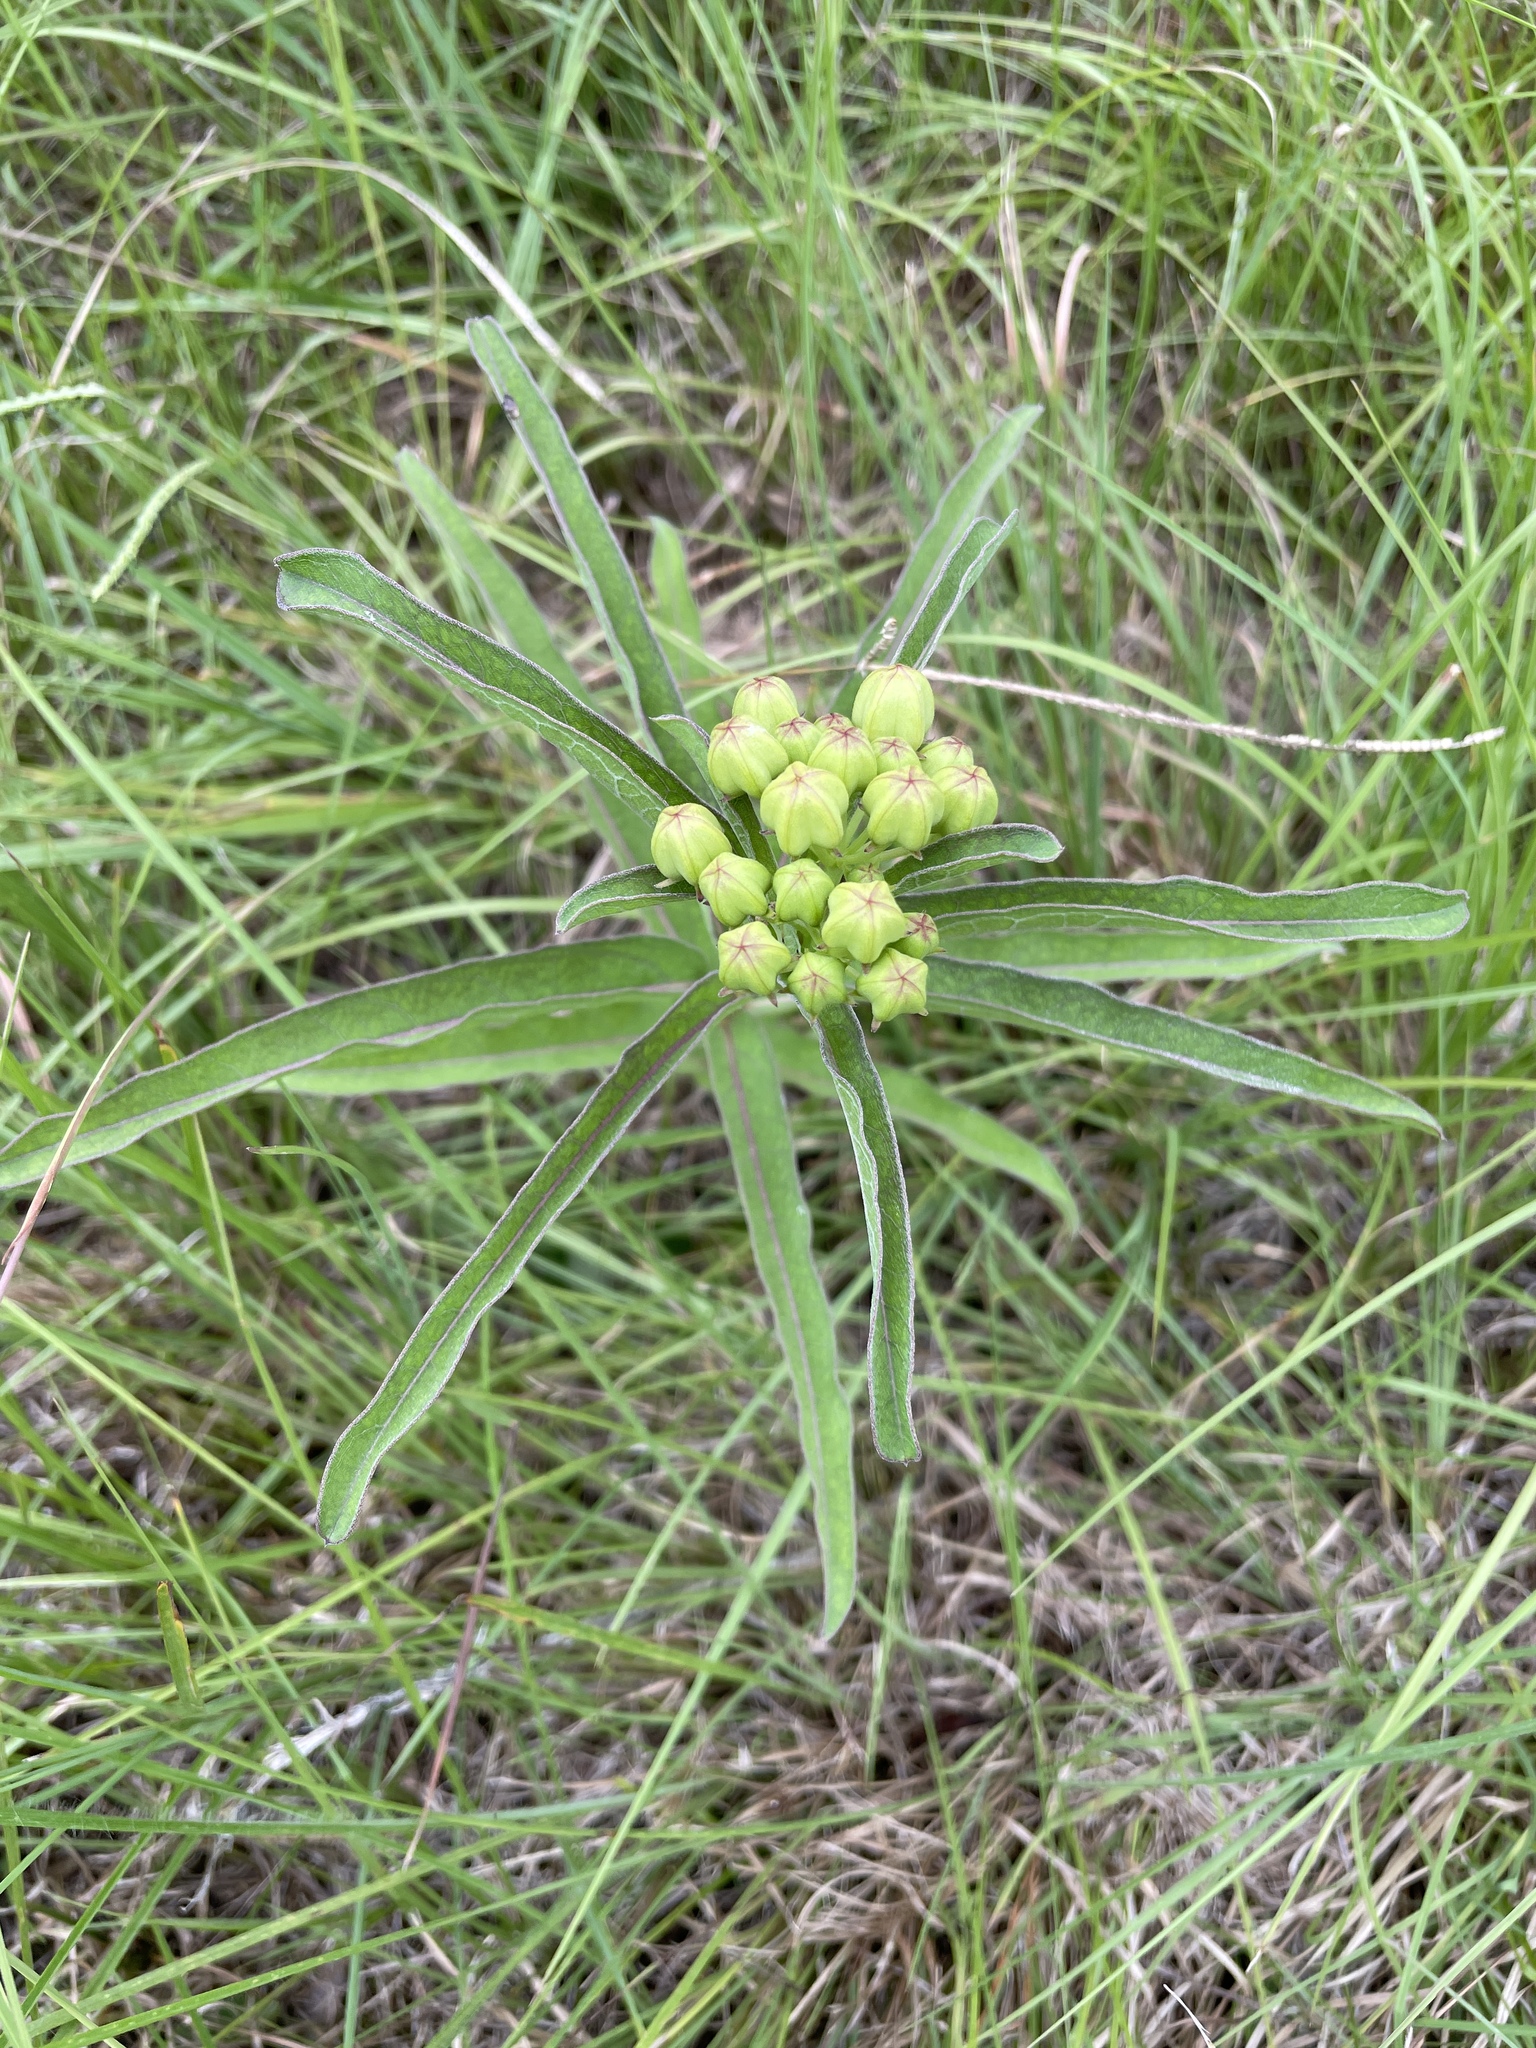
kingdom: Plantae
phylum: Tracheophyta
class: Magnoliopsida
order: Gentianales
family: Apocynaceae
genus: Asclepias
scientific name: Asclepias viridis
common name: Antelope-horns
